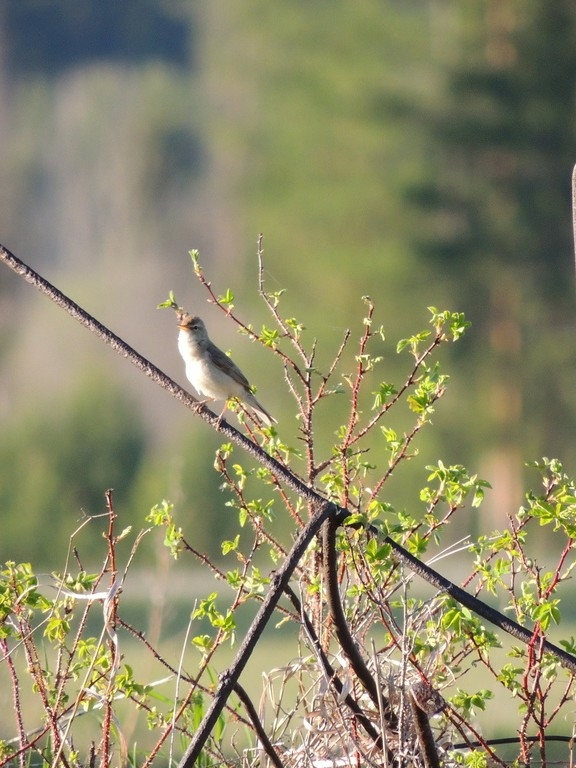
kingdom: Animalia
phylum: Chordata
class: Aves
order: Passeriformes
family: Acrocephalidae
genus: Iduna
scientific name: Iduna caligata
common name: Booted warbler
